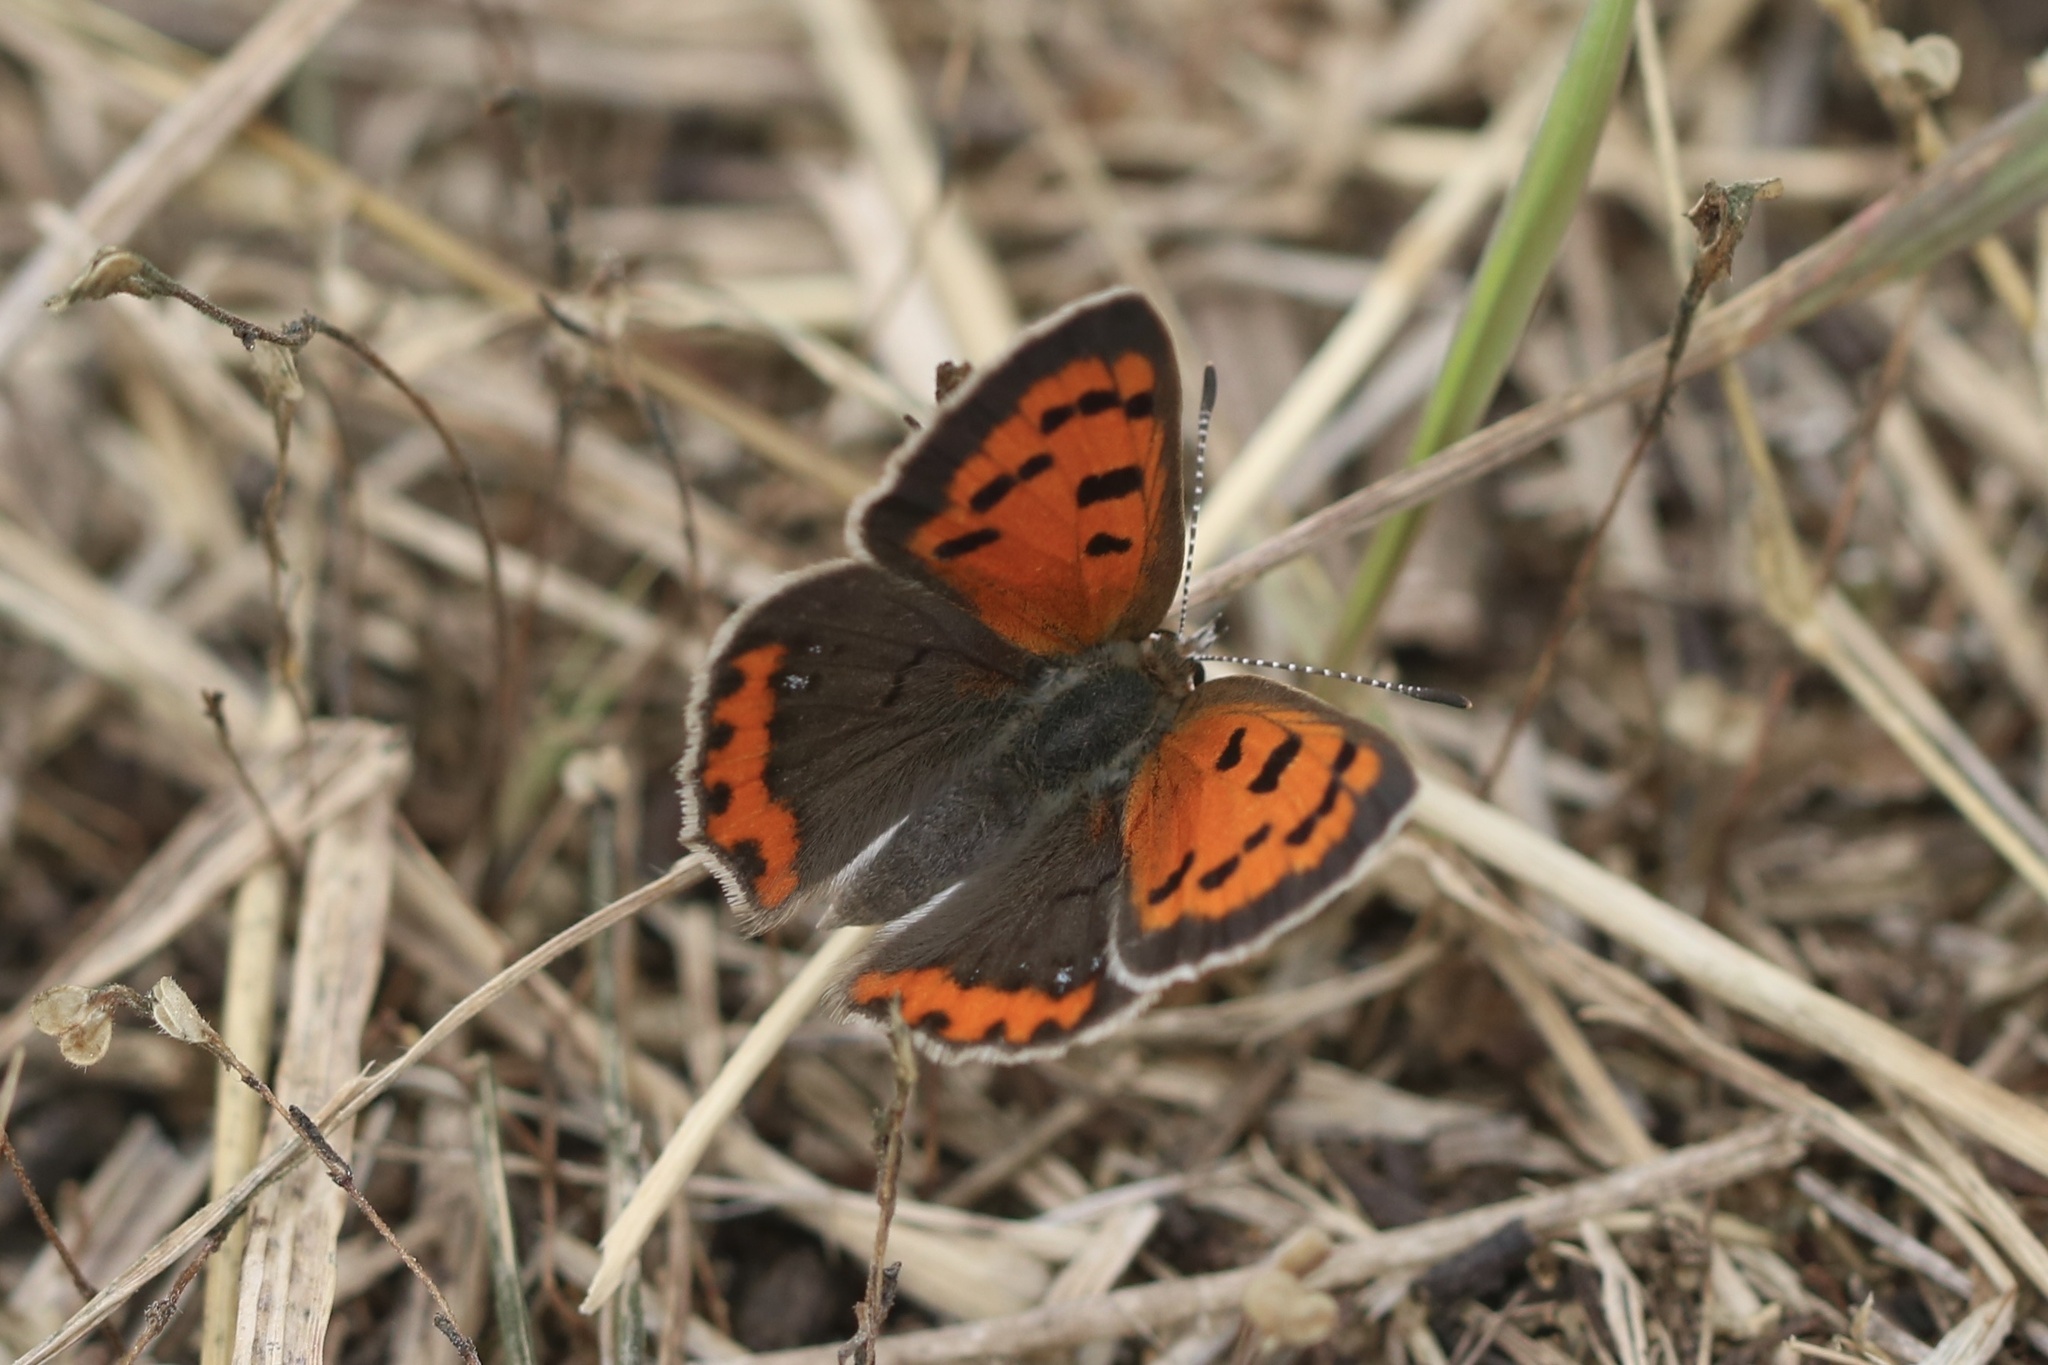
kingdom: Animalia
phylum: Arthropoda
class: Insecta
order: Lepidoptera
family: Lycaenidae
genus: Lycaena
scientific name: Lycaena hypophlaeas
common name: American copper
